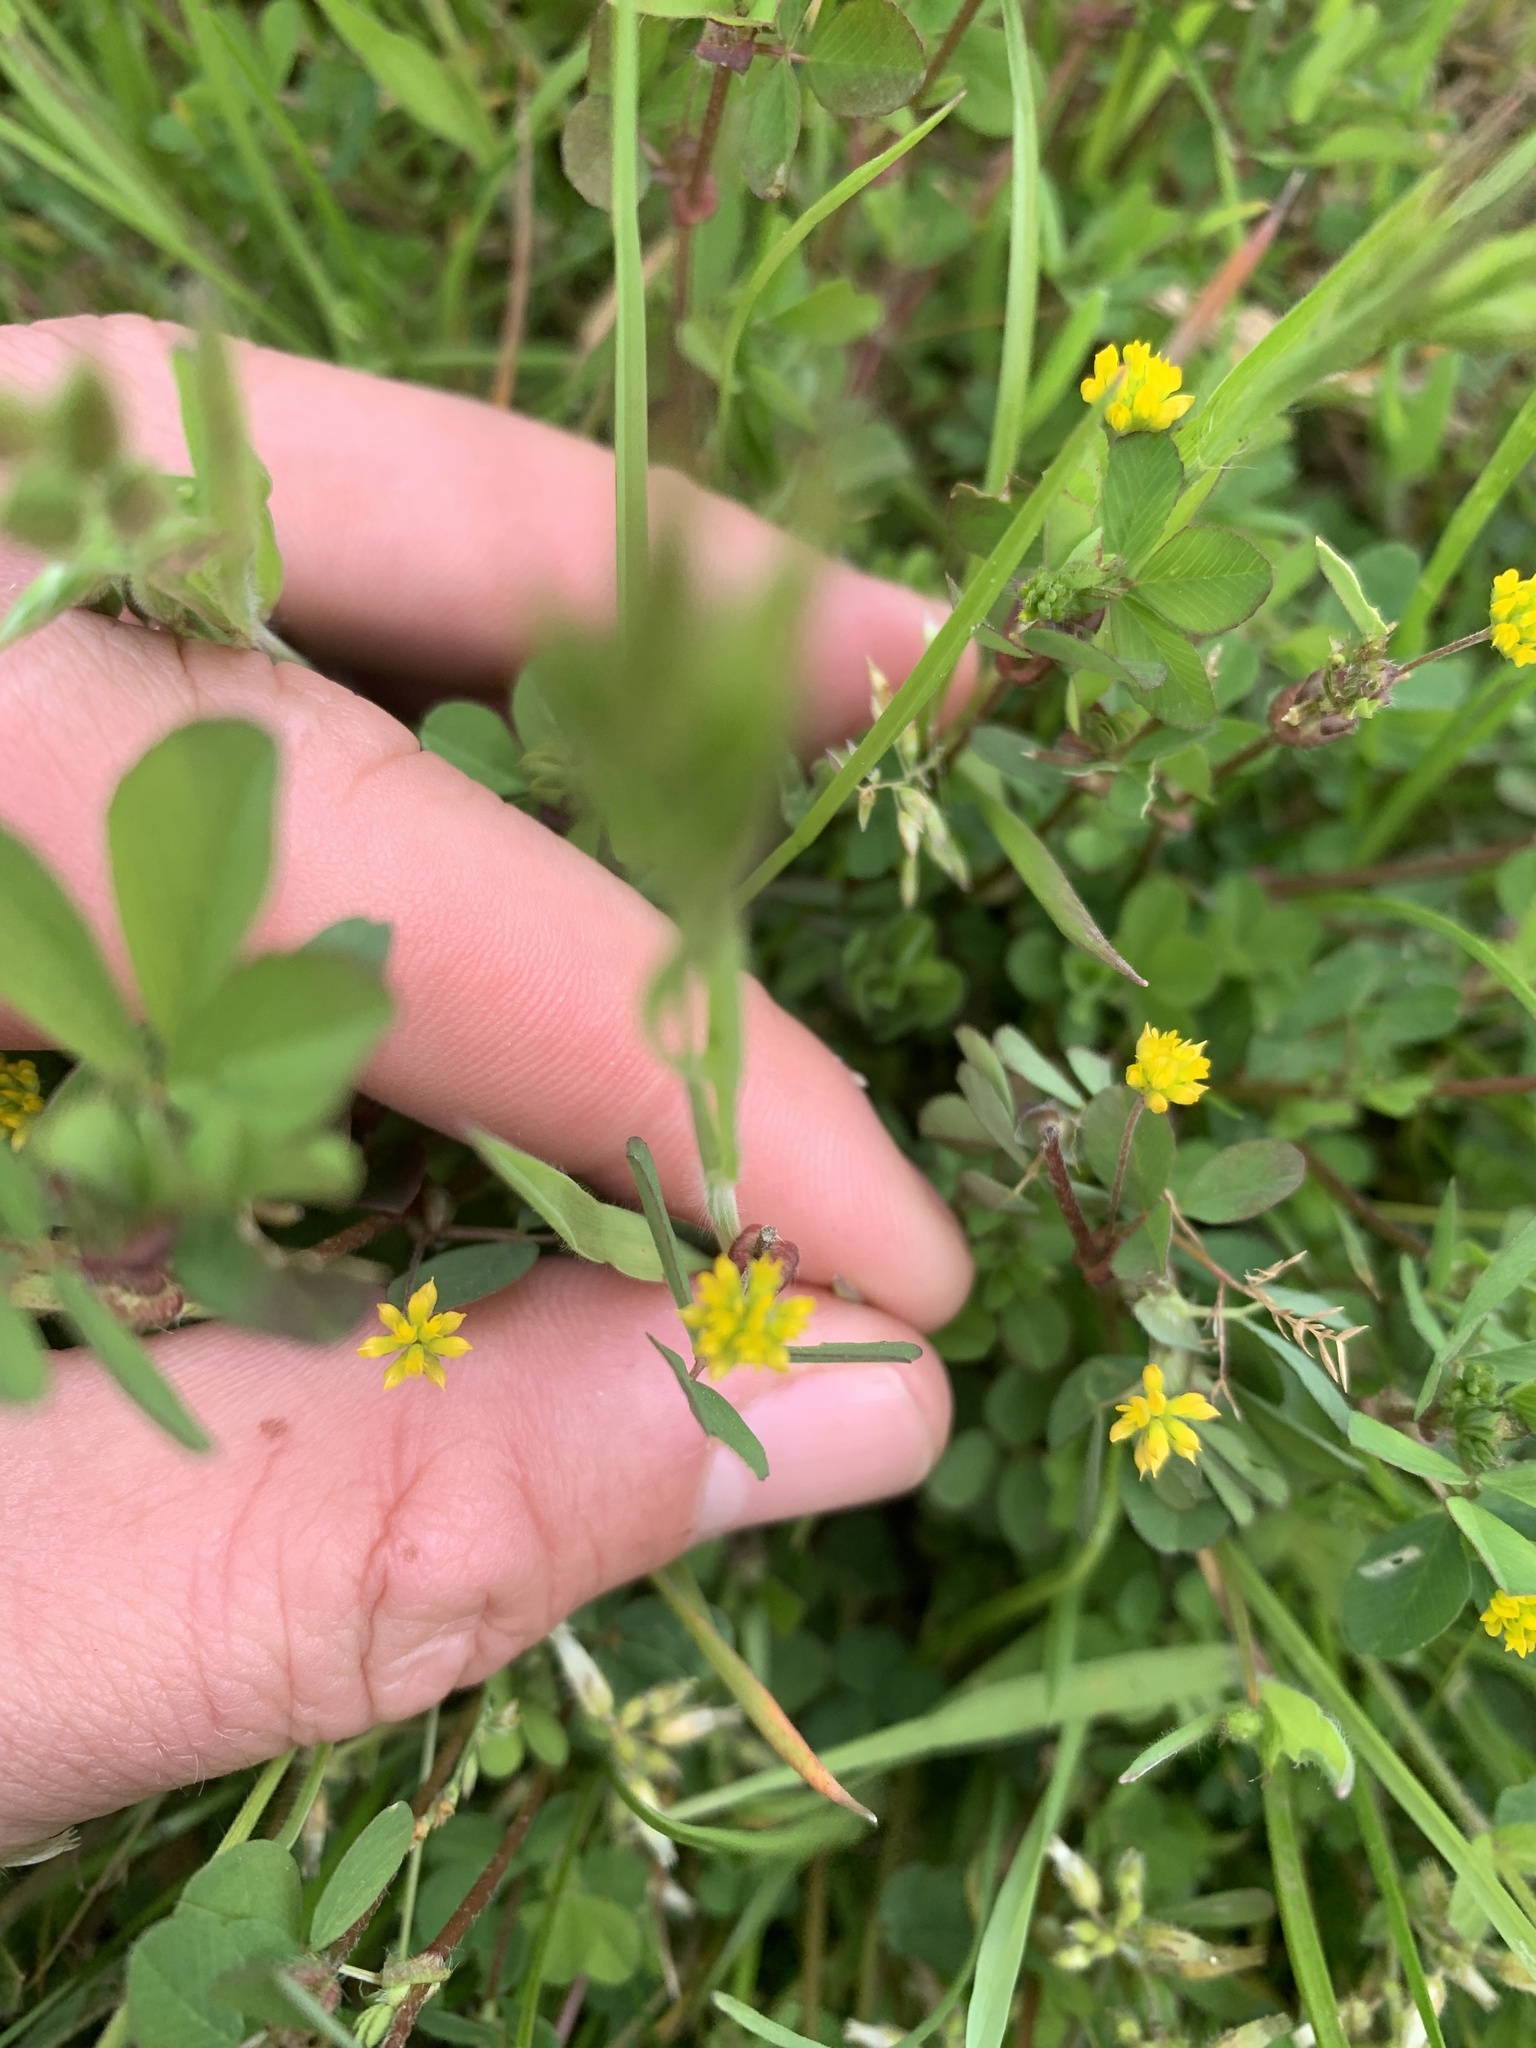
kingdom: Plantae
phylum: Tracheophyta
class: Magnoliopsida
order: Fabales
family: Fabaceae
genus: Trifolium
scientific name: Trifolium dubium
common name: Suckling clover
